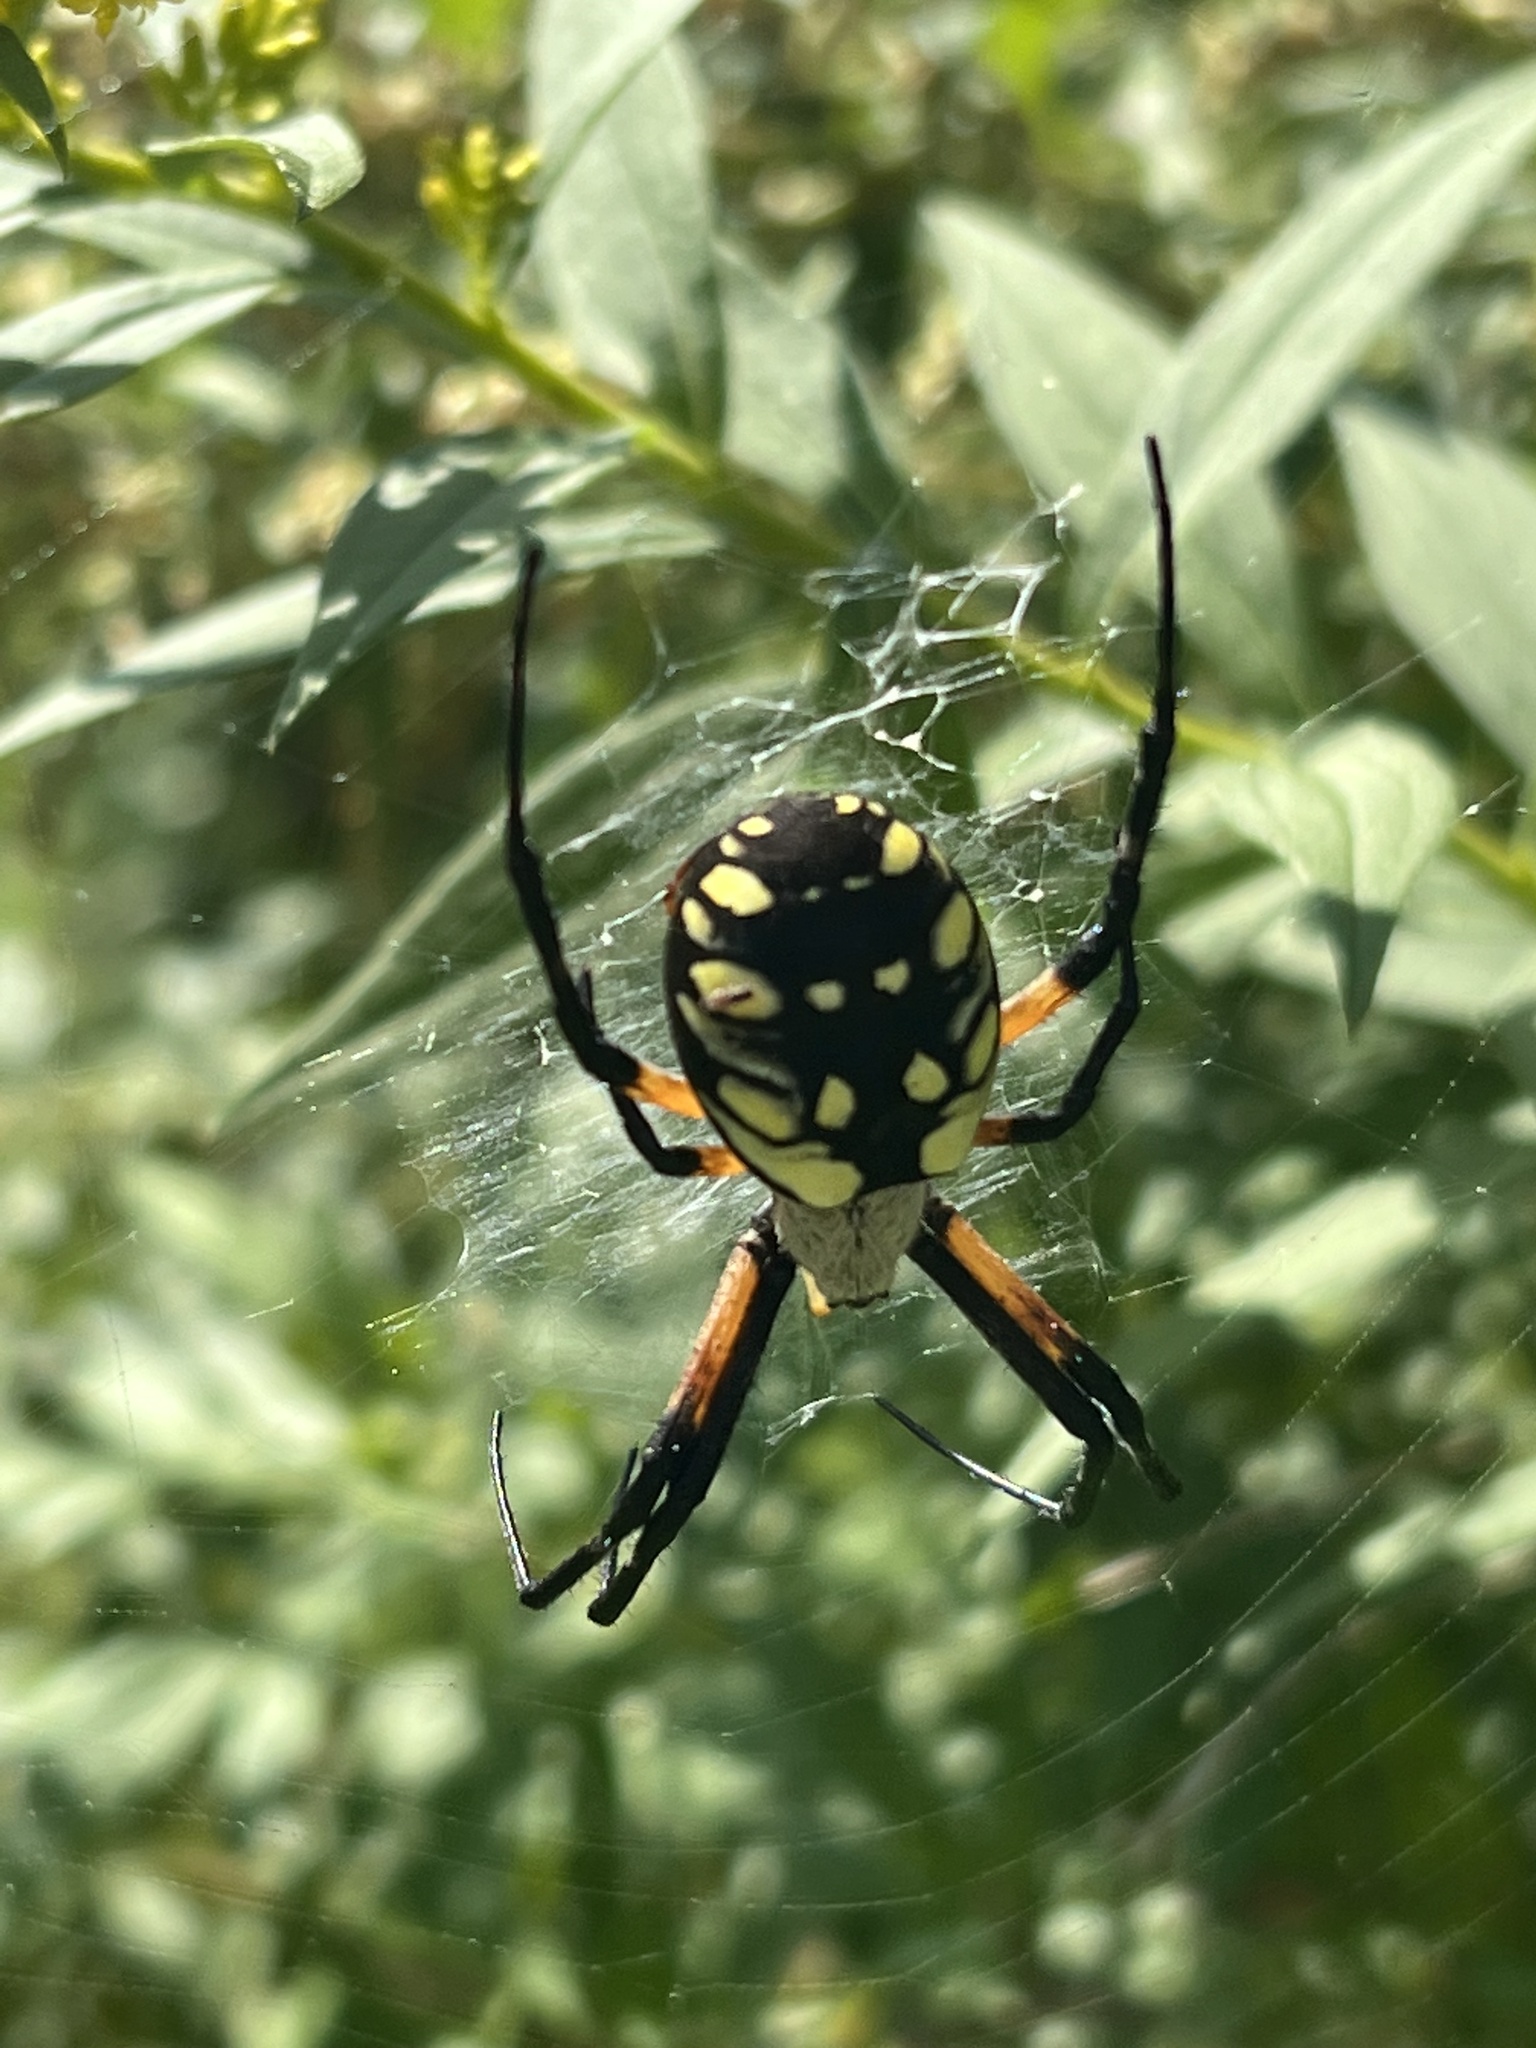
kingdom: Animalia
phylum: Arthropoda
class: Arachnida
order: Araneae
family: Araneidae
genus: Argiope
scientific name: Argiope aurantia
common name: Orb weavers
